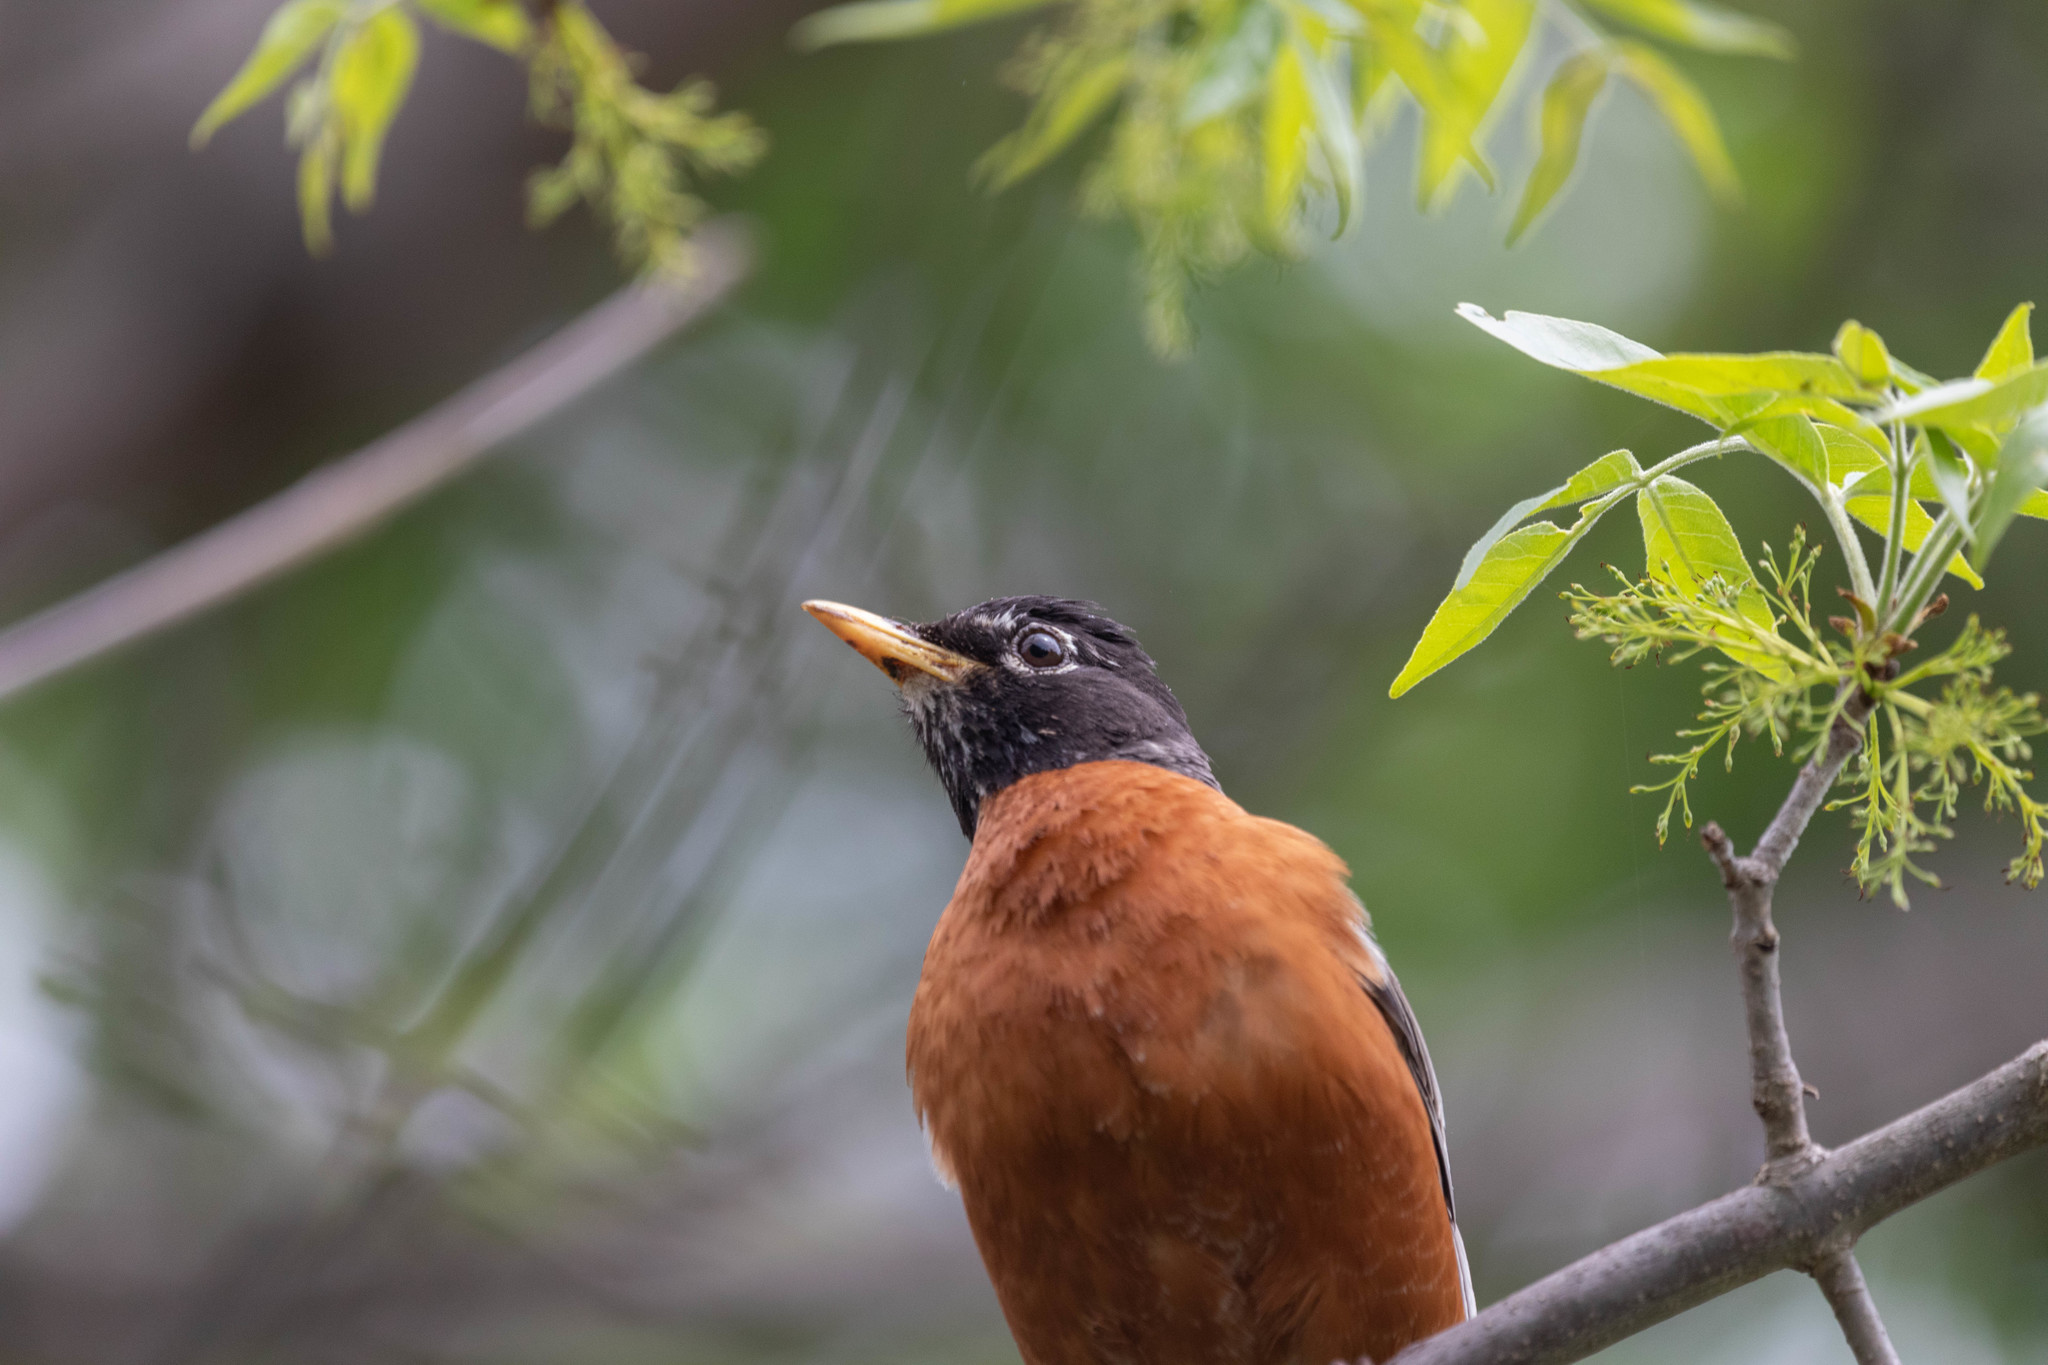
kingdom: Animalia
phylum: Chordata
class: Aves
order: Passeriformes
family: Turdidae
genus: Turdus
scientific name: Turdus migratorius
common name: American robin
